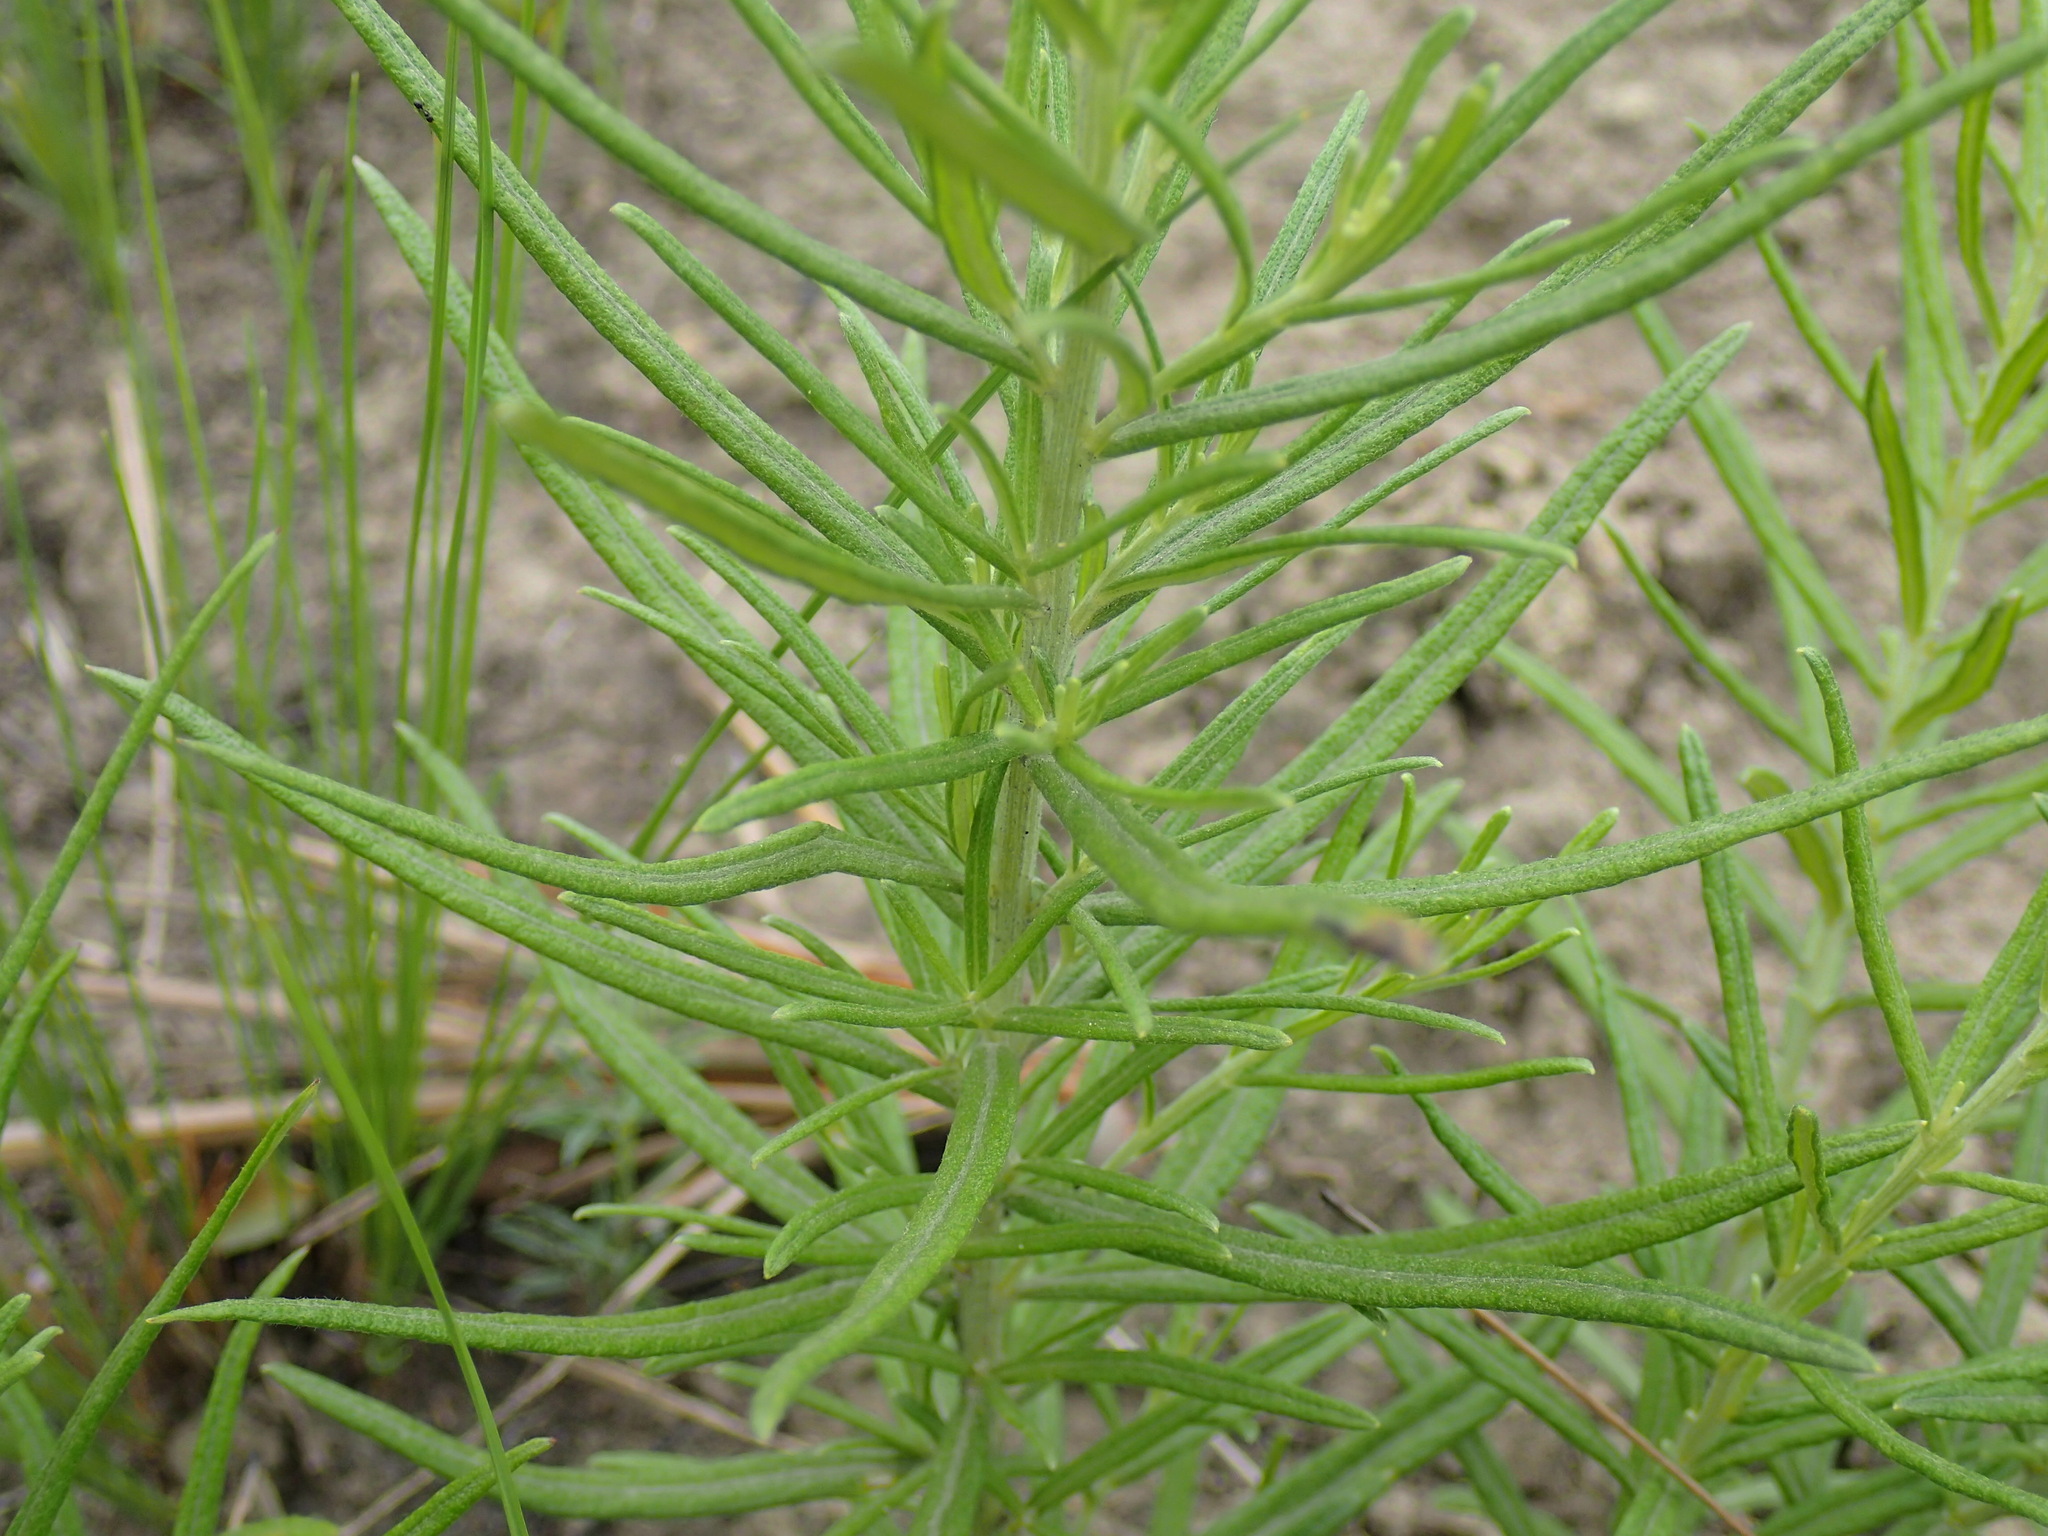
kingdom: Plantae
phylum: Tracheophyta
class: Magnoliopsida
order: Asterales
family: Asteraceae
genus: Hilliardiella
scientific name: Hilliardiella capensis
